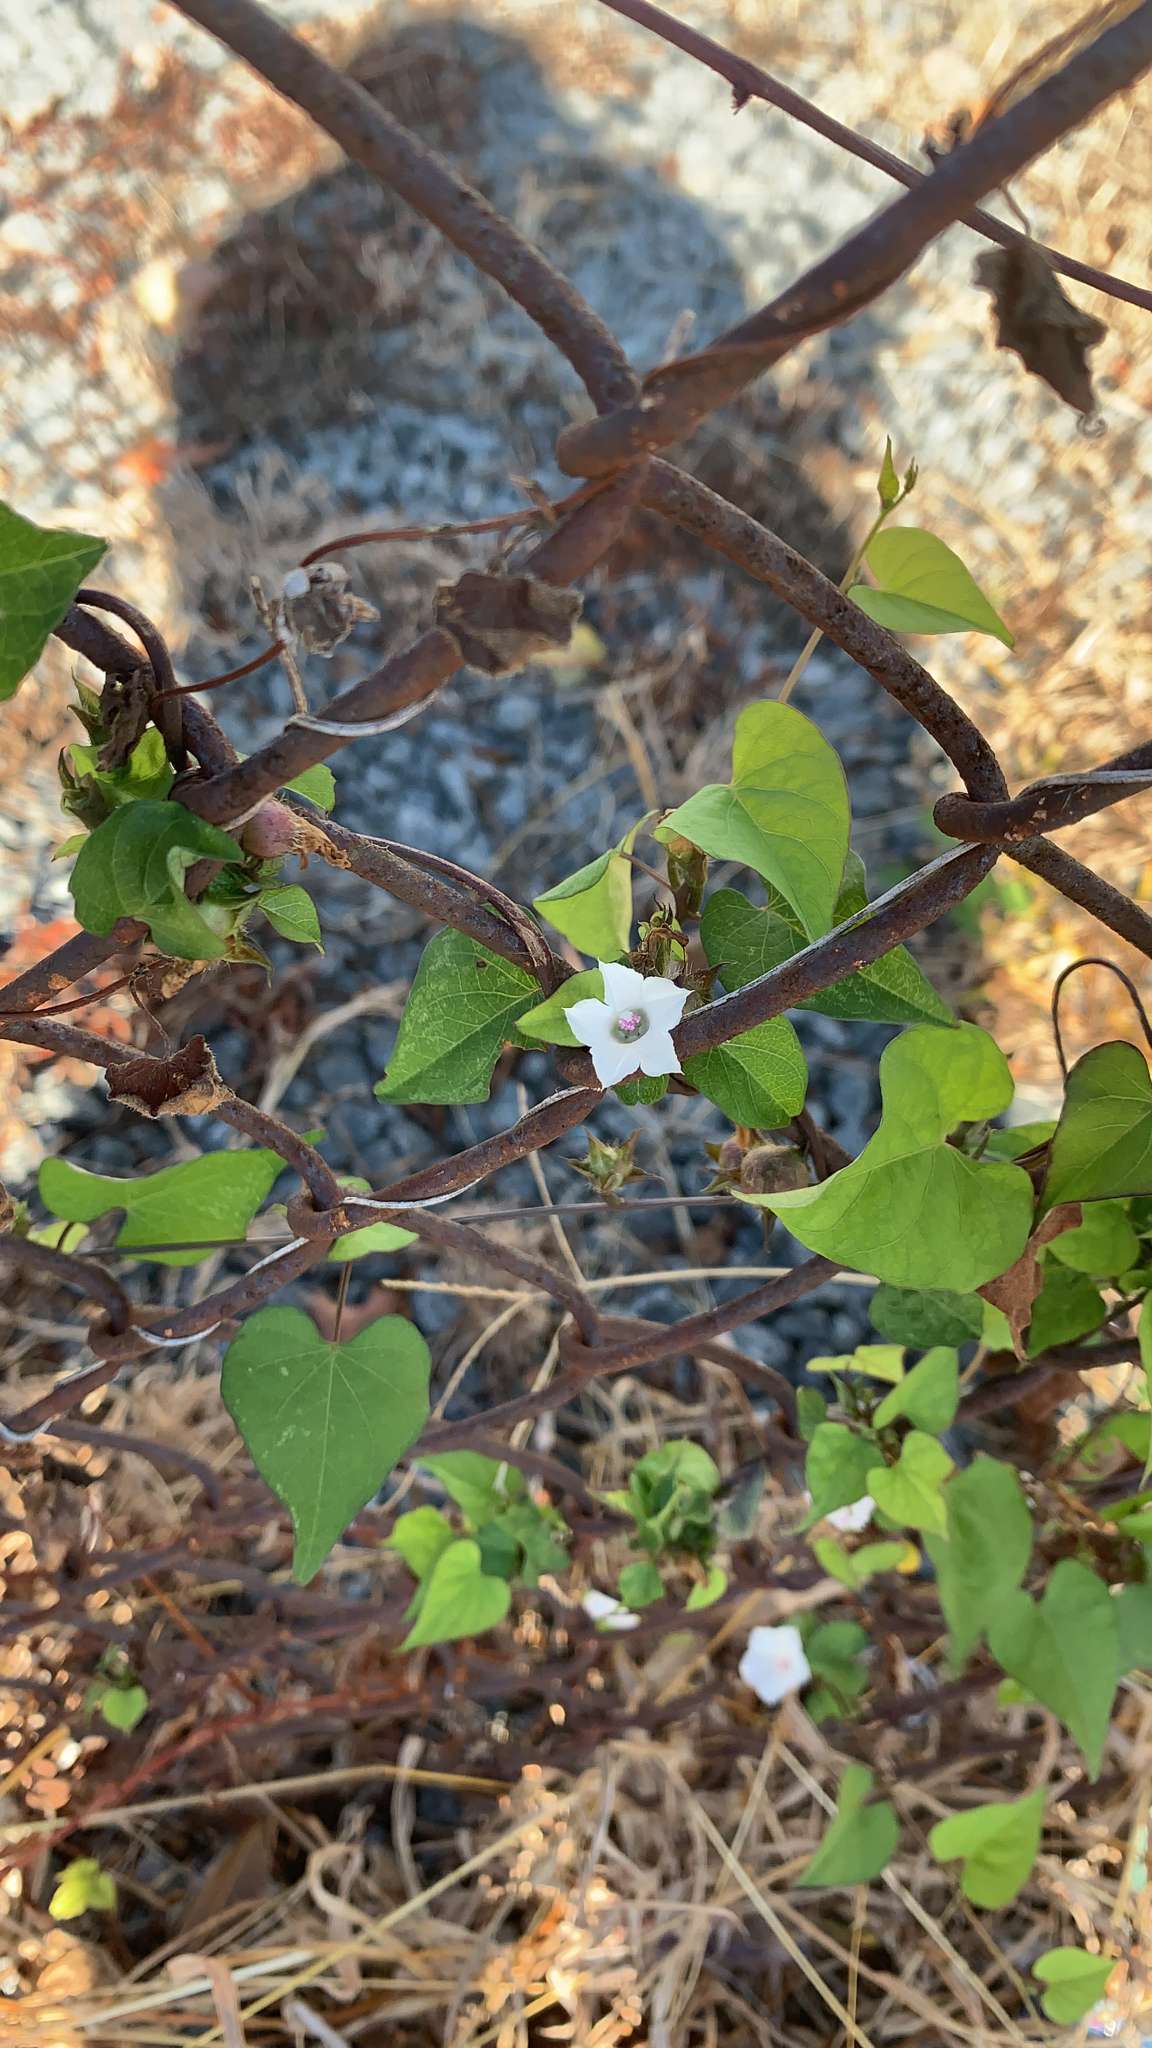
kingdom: Plantae
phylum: Tracheophyta
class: Magnoliopsida
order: Solanales
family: Convolvulaceae
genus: Ipomoea
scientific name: Ipomoea lacunosa
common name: White morning-glory
